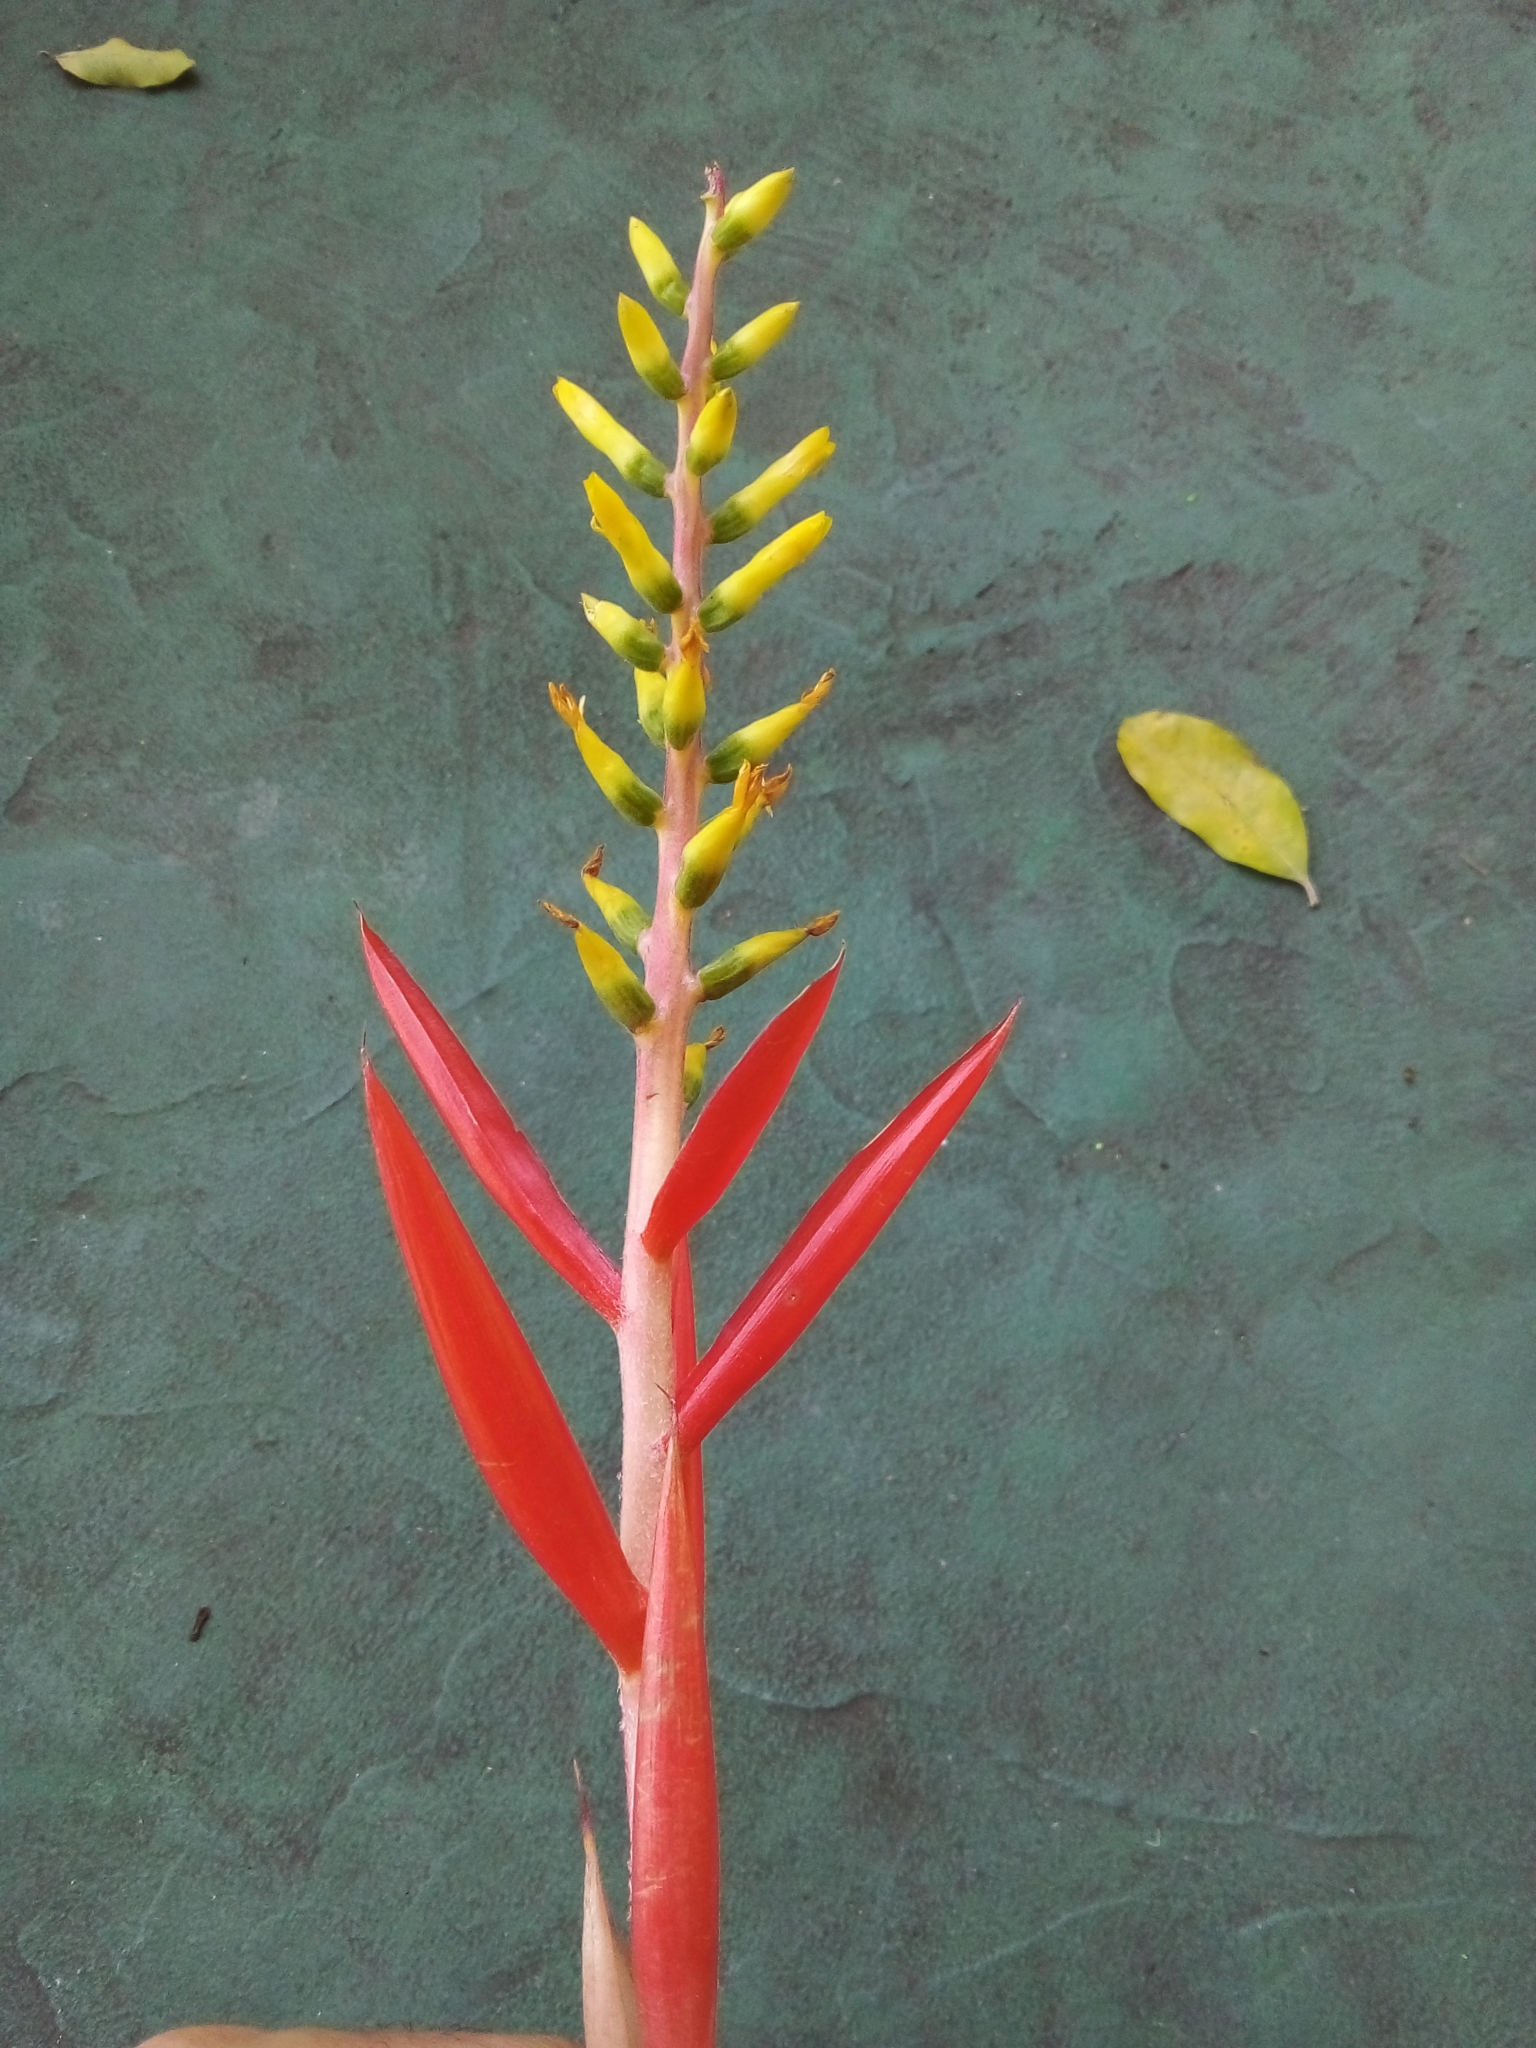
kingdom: Plantae
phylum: Tracheophyta
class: Liliopsida
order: Poales
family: Bromeliaceae
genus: Aechmea
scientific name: Aechmea nudicaulis
